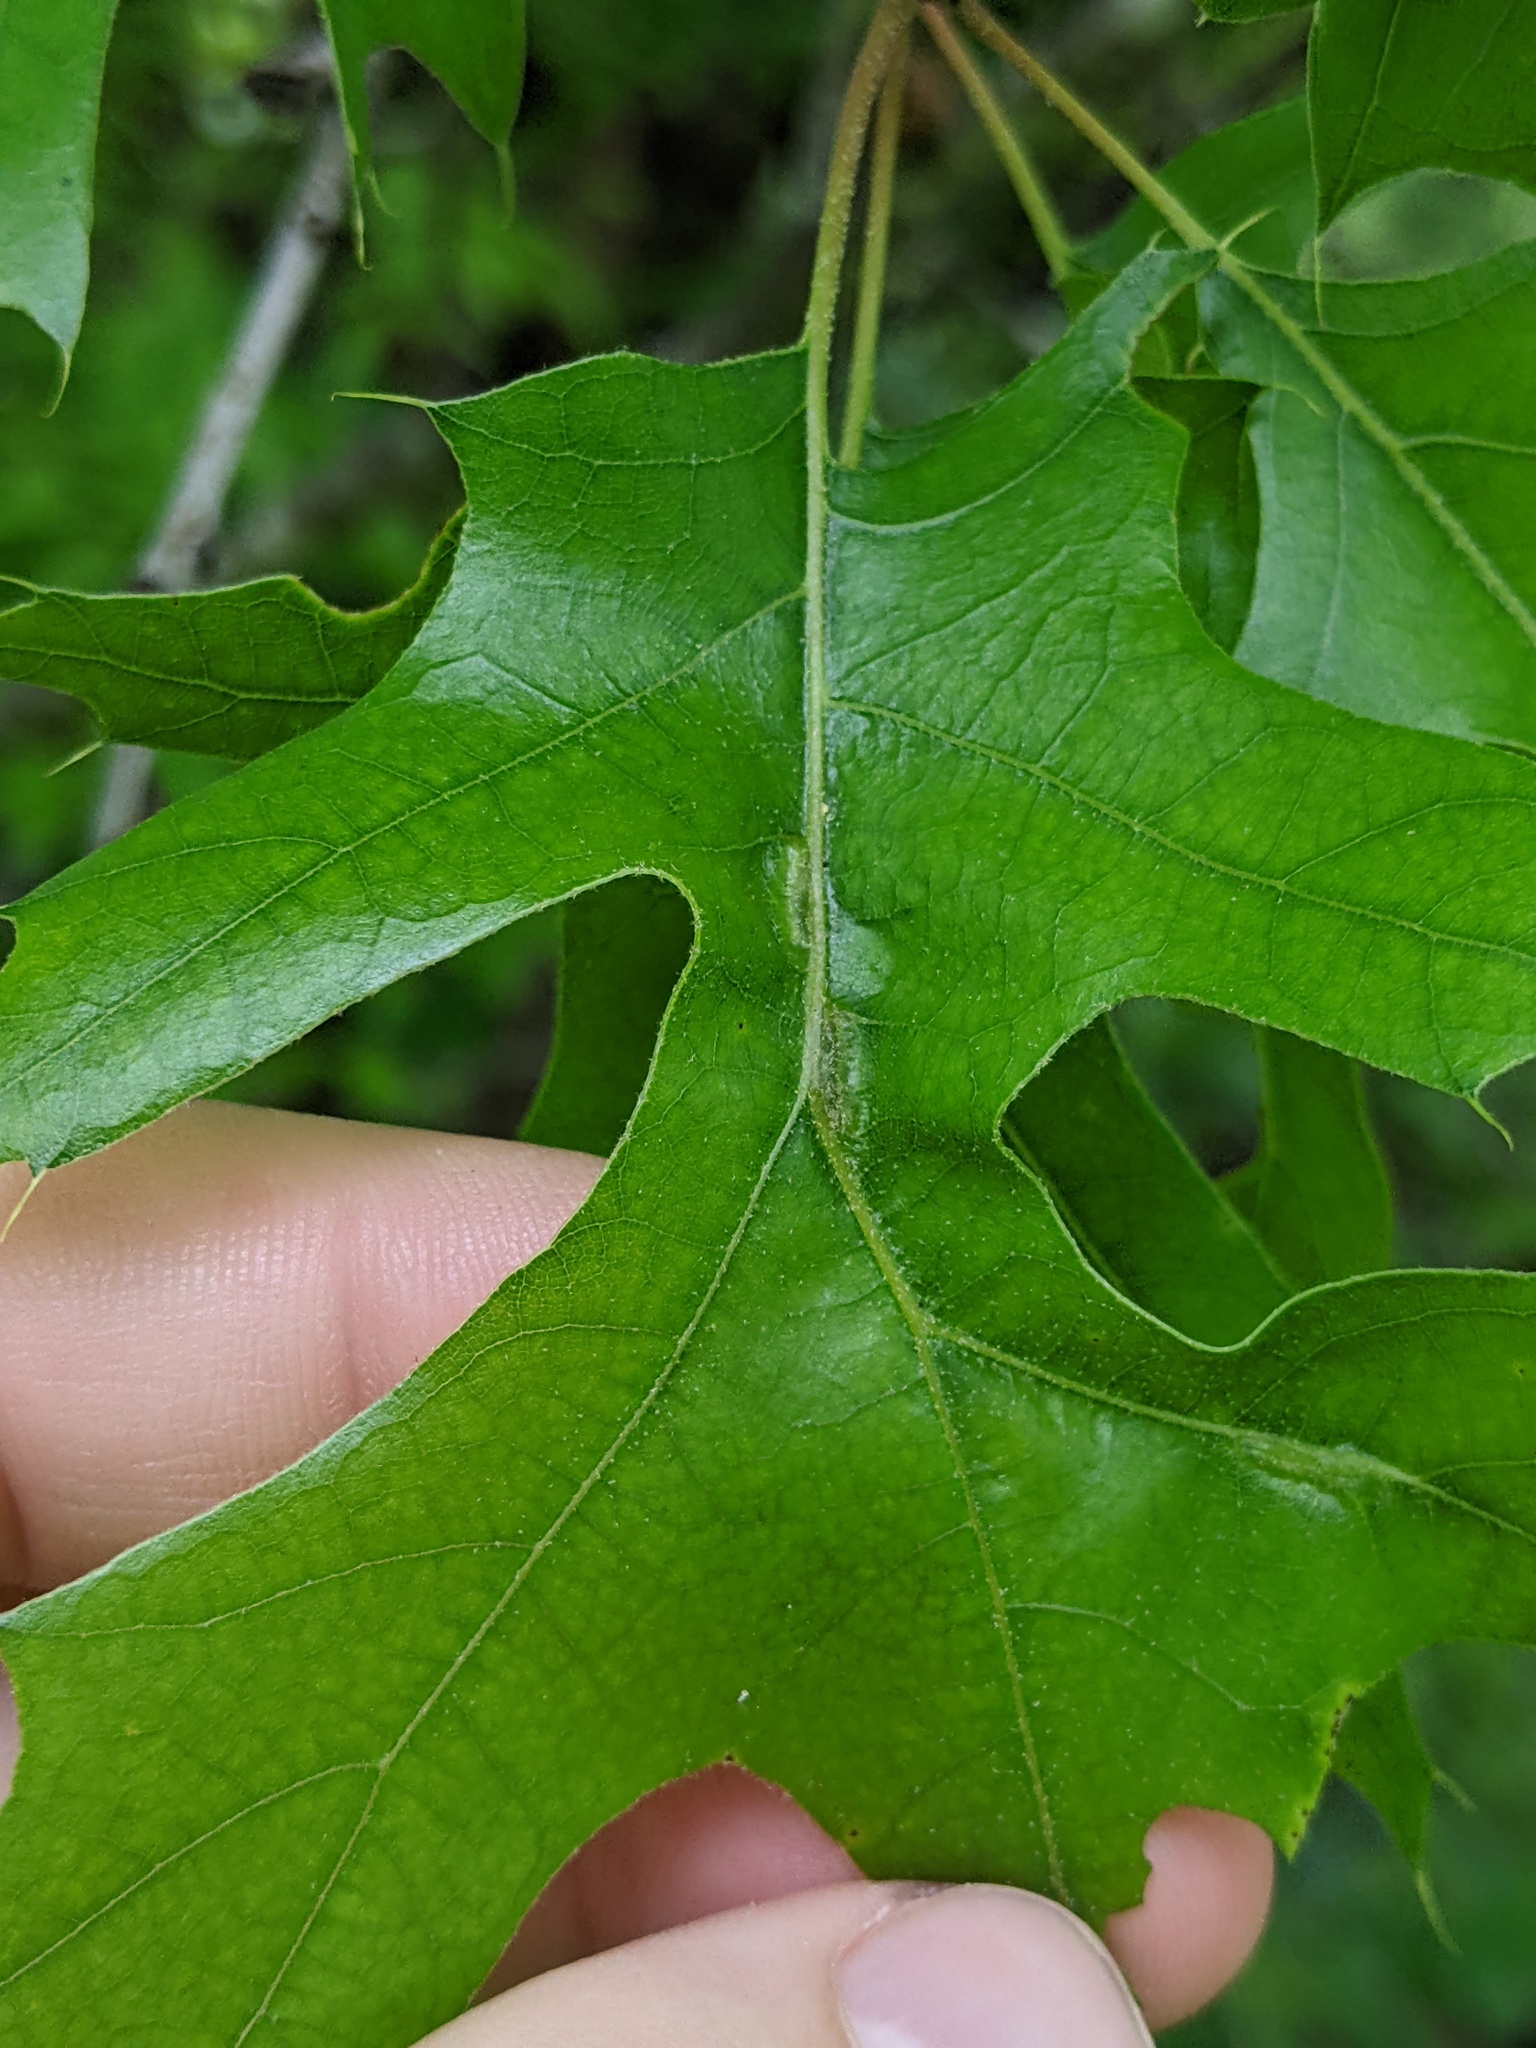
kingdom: Animalia
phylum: Arthropoda
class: Insecta
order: Diptera
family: Cecidomyiidae
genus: Macrodiplosis
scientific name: Macrodiplosis niveipila
